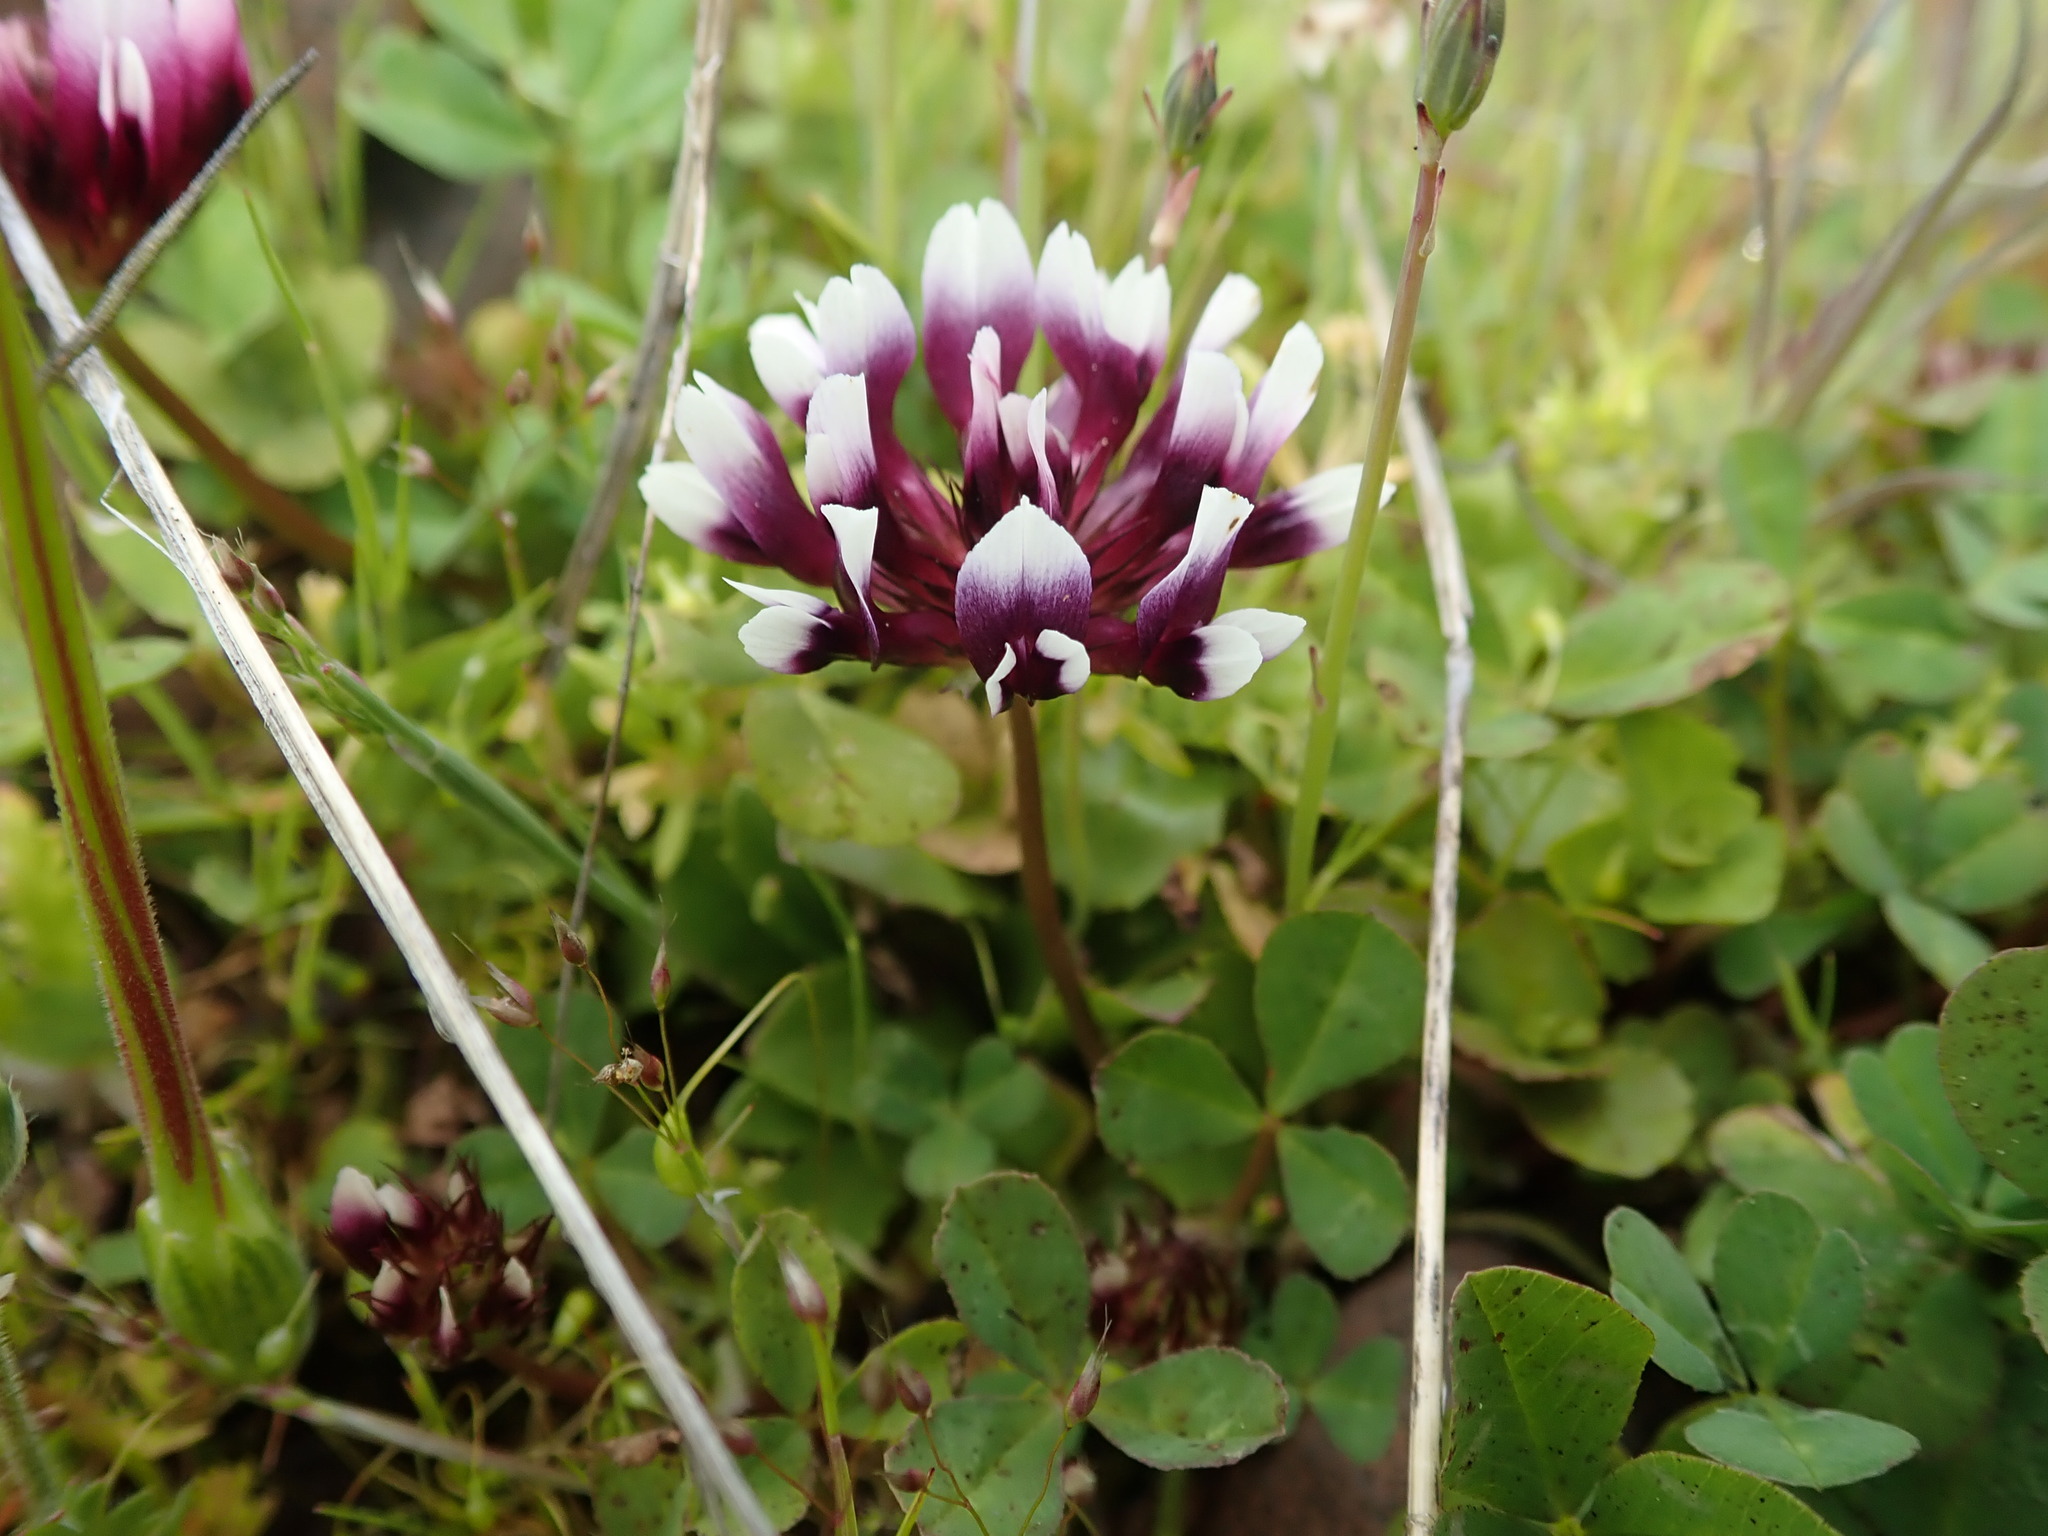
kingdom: Plantae
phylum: Tracheophyta
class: Magnoliopsida
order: Fabales
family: Fabaceae
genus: Trifolium
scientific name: Trifolium variegatum
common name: Whitetip clover
